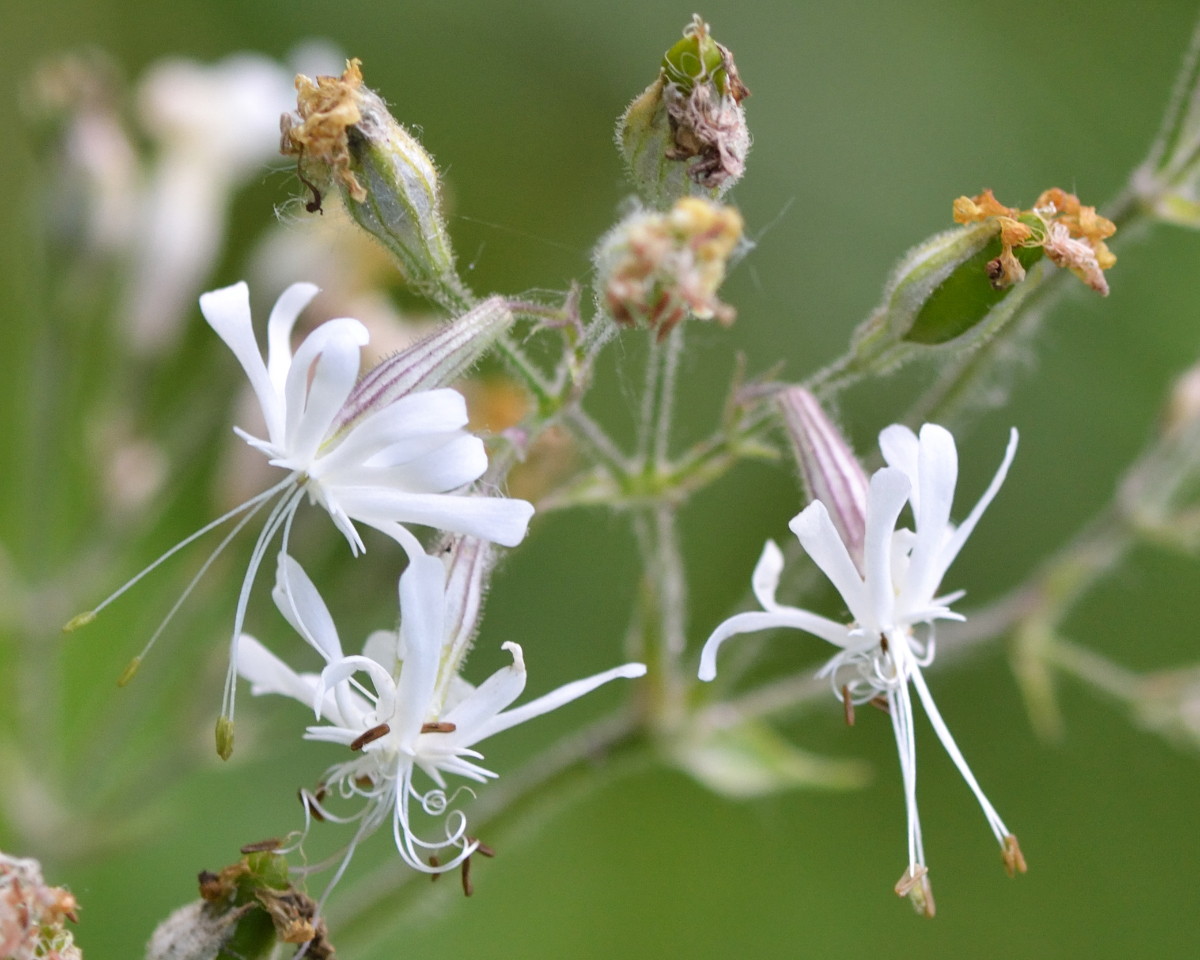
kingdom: Plantae
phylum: Tracheophyta
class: Magnoliopsida
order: Caryophyllales
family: Caryophyllaceae
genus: Silene
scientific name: Silene nutans
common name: Nottingham catchfly
